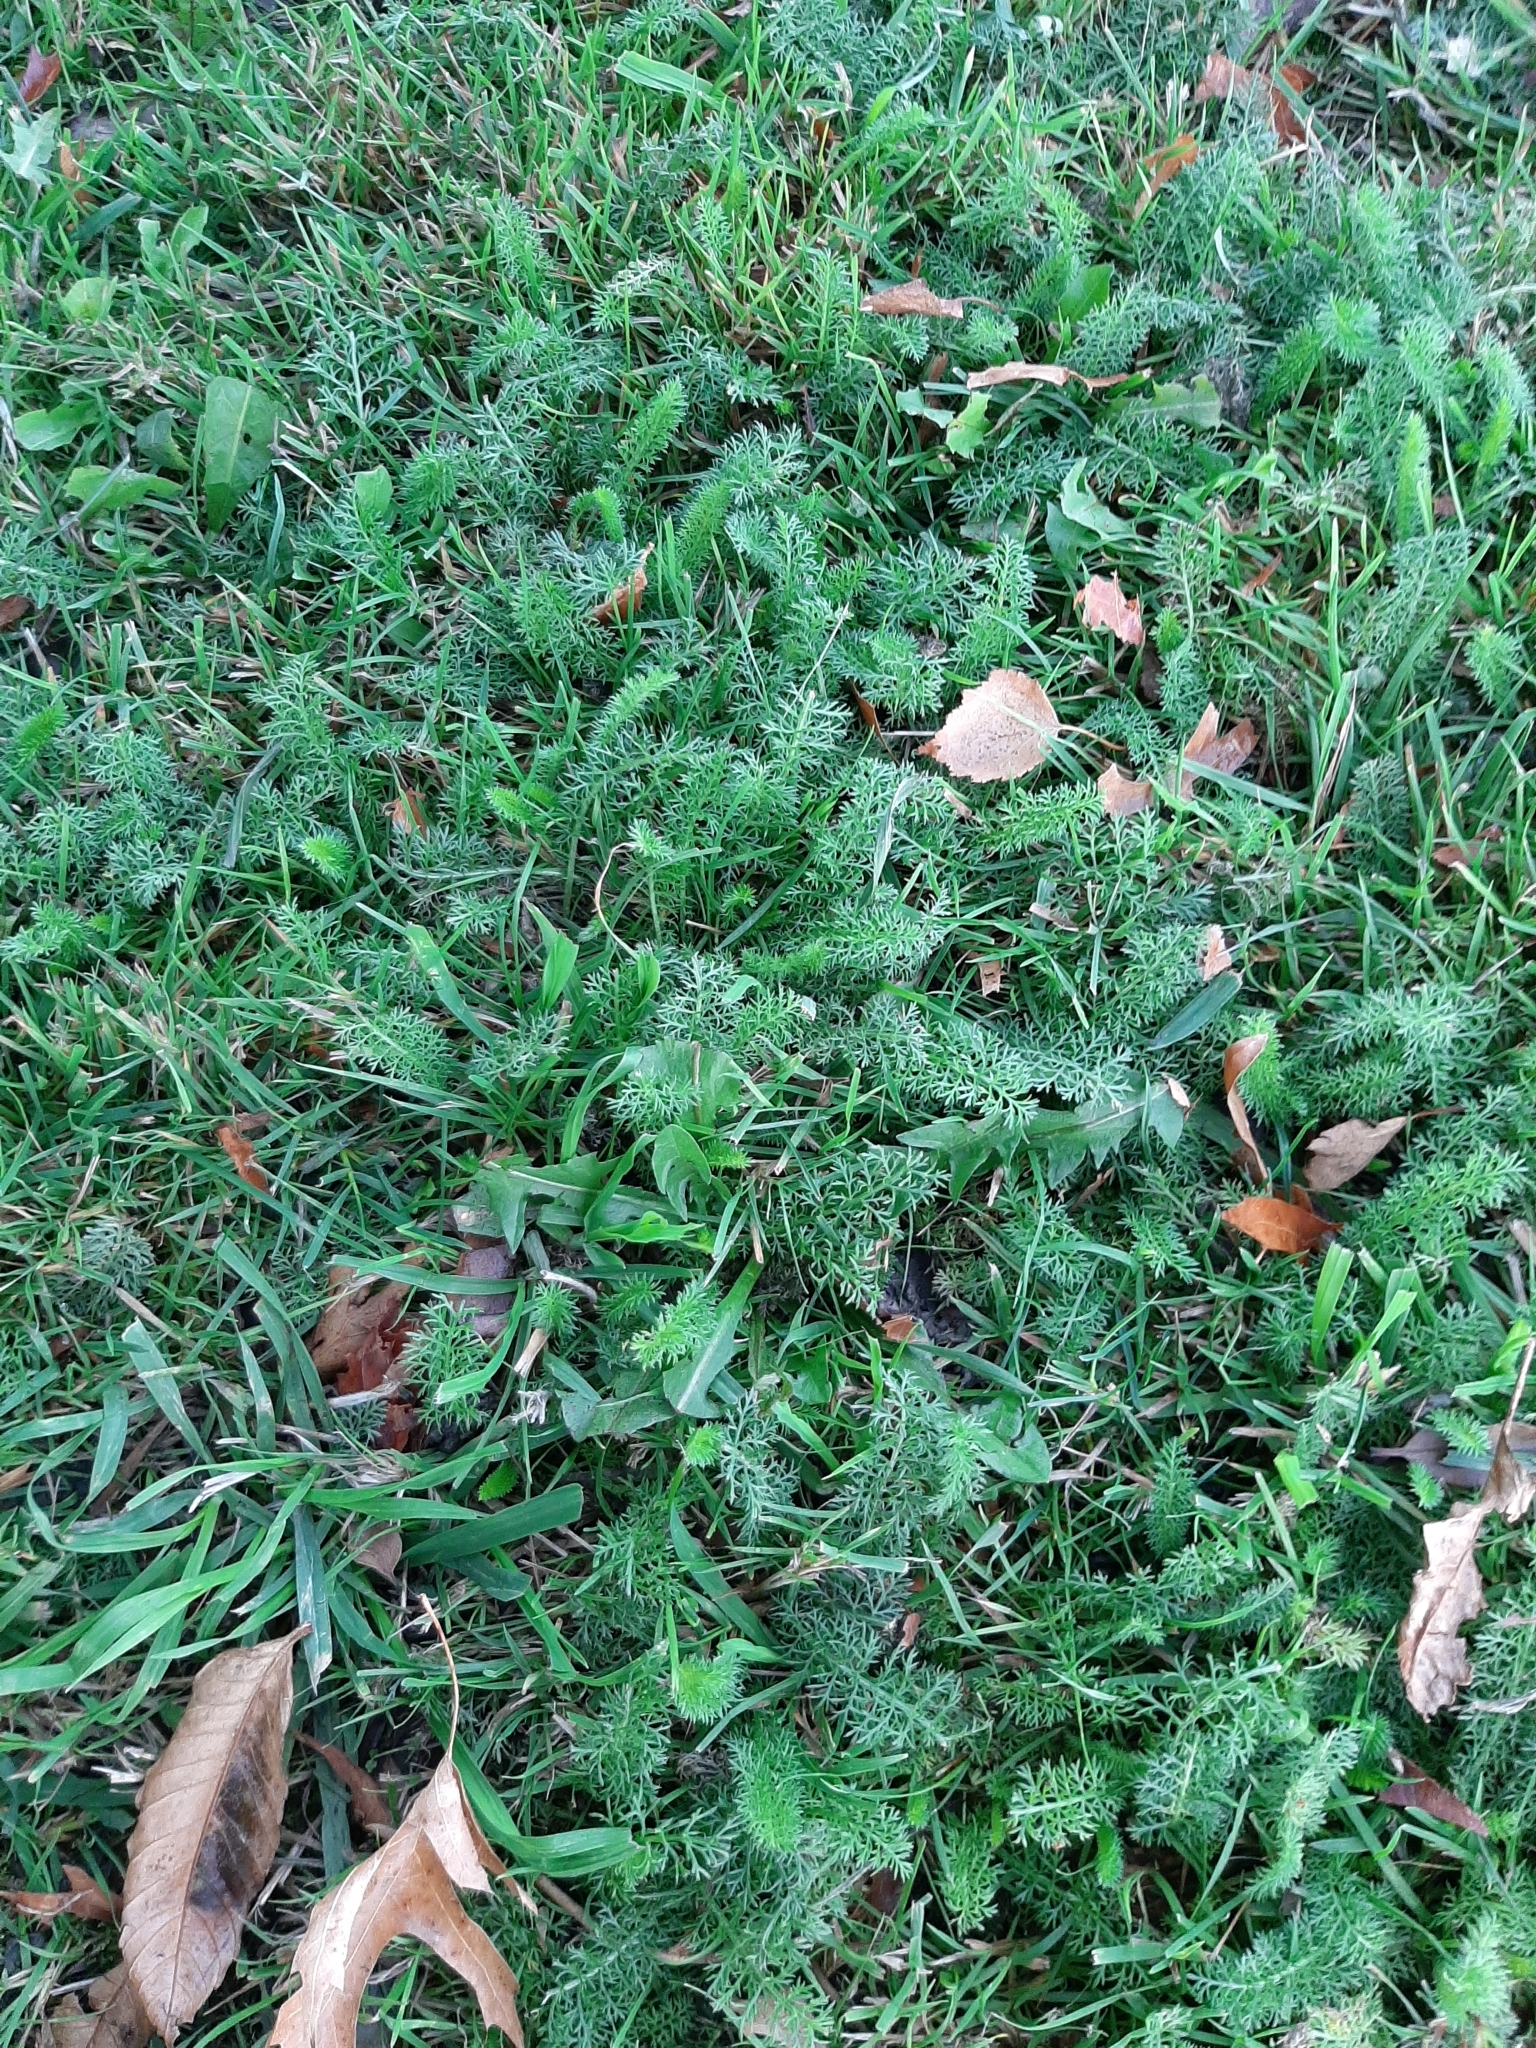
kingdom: Plantae
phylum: Tracheophyta
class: Magnoliopsida
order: Asterales
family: Asteraceae
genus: Achillea
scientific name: Achillea millefolium
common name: Yarrow
